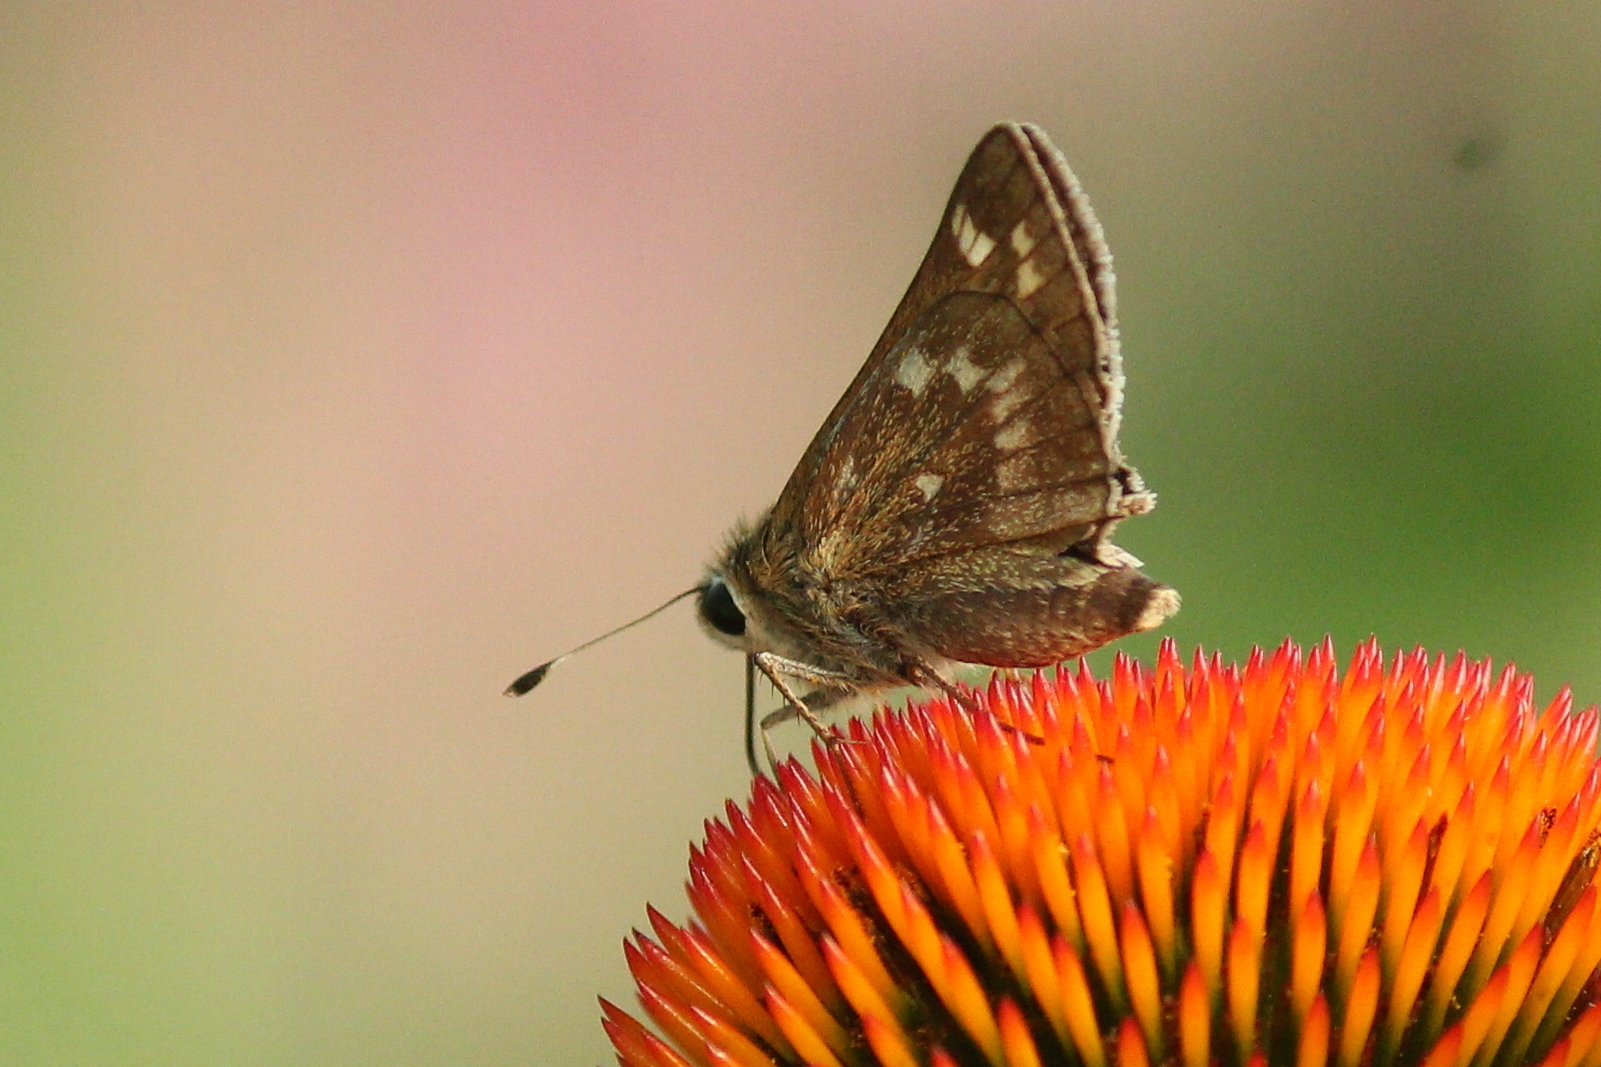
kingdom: Animalia
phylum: Arthropoda
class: Insecta
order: Lepidoptera
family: Hesperiidae
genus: Atalopedes
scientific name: Atalopedes
